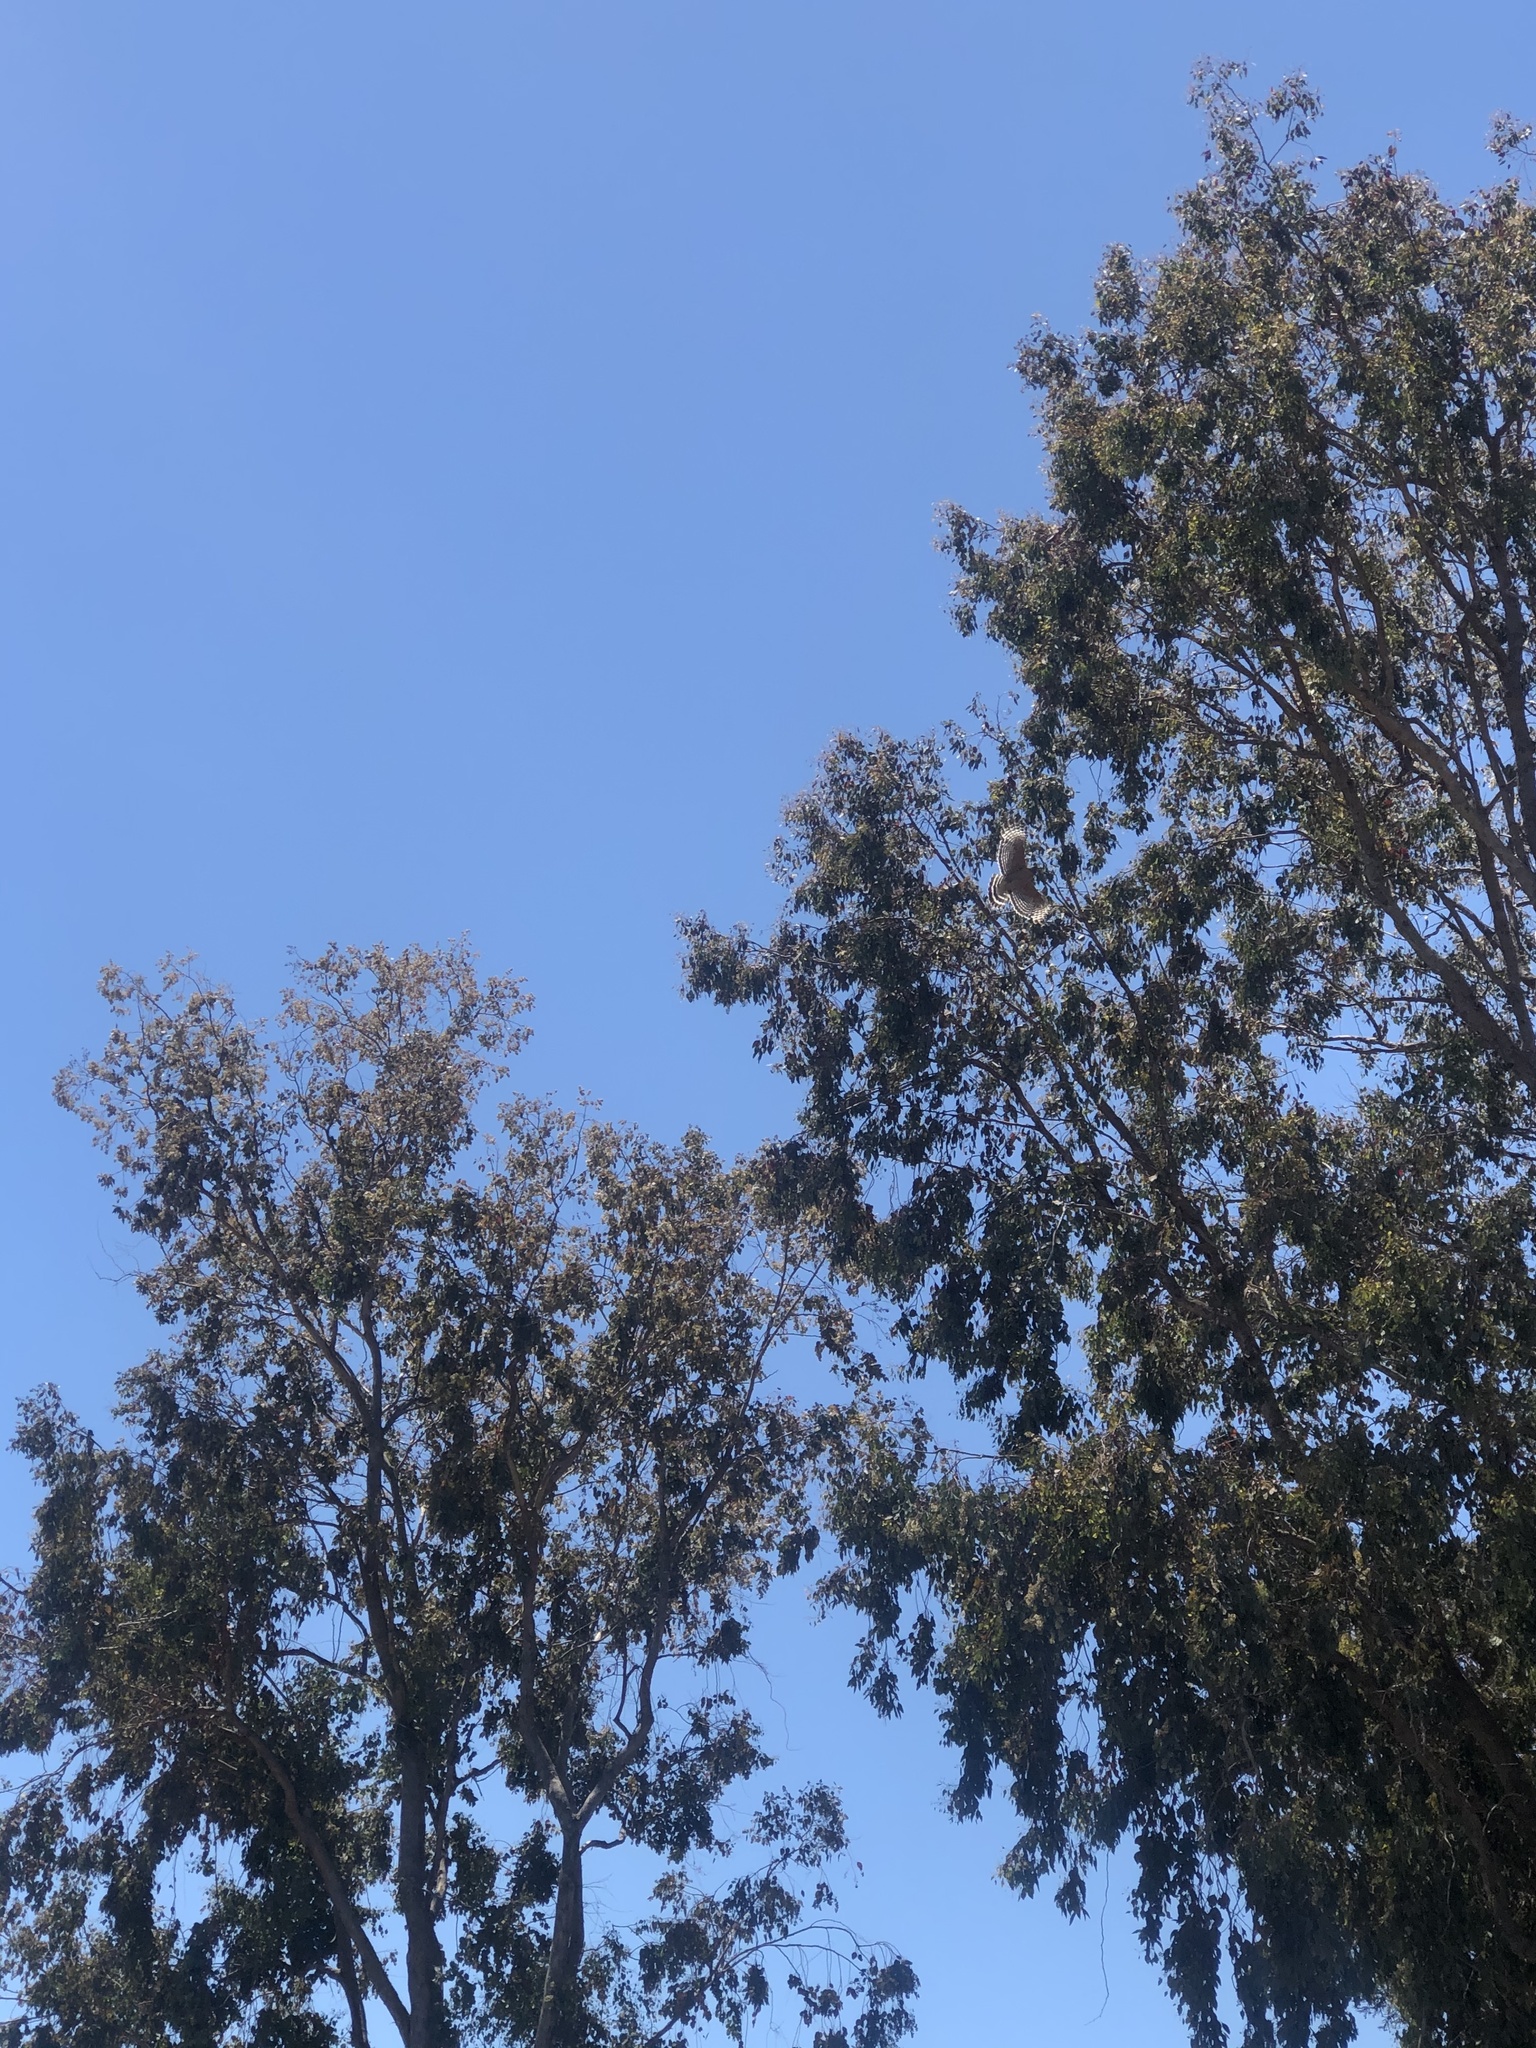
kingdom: Animalia
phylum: Chordata
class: Aves
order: Accipitriformes
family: Accipitridae
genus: Buteo
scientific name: Buteo lineatus
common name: Red-shouldered hawk
